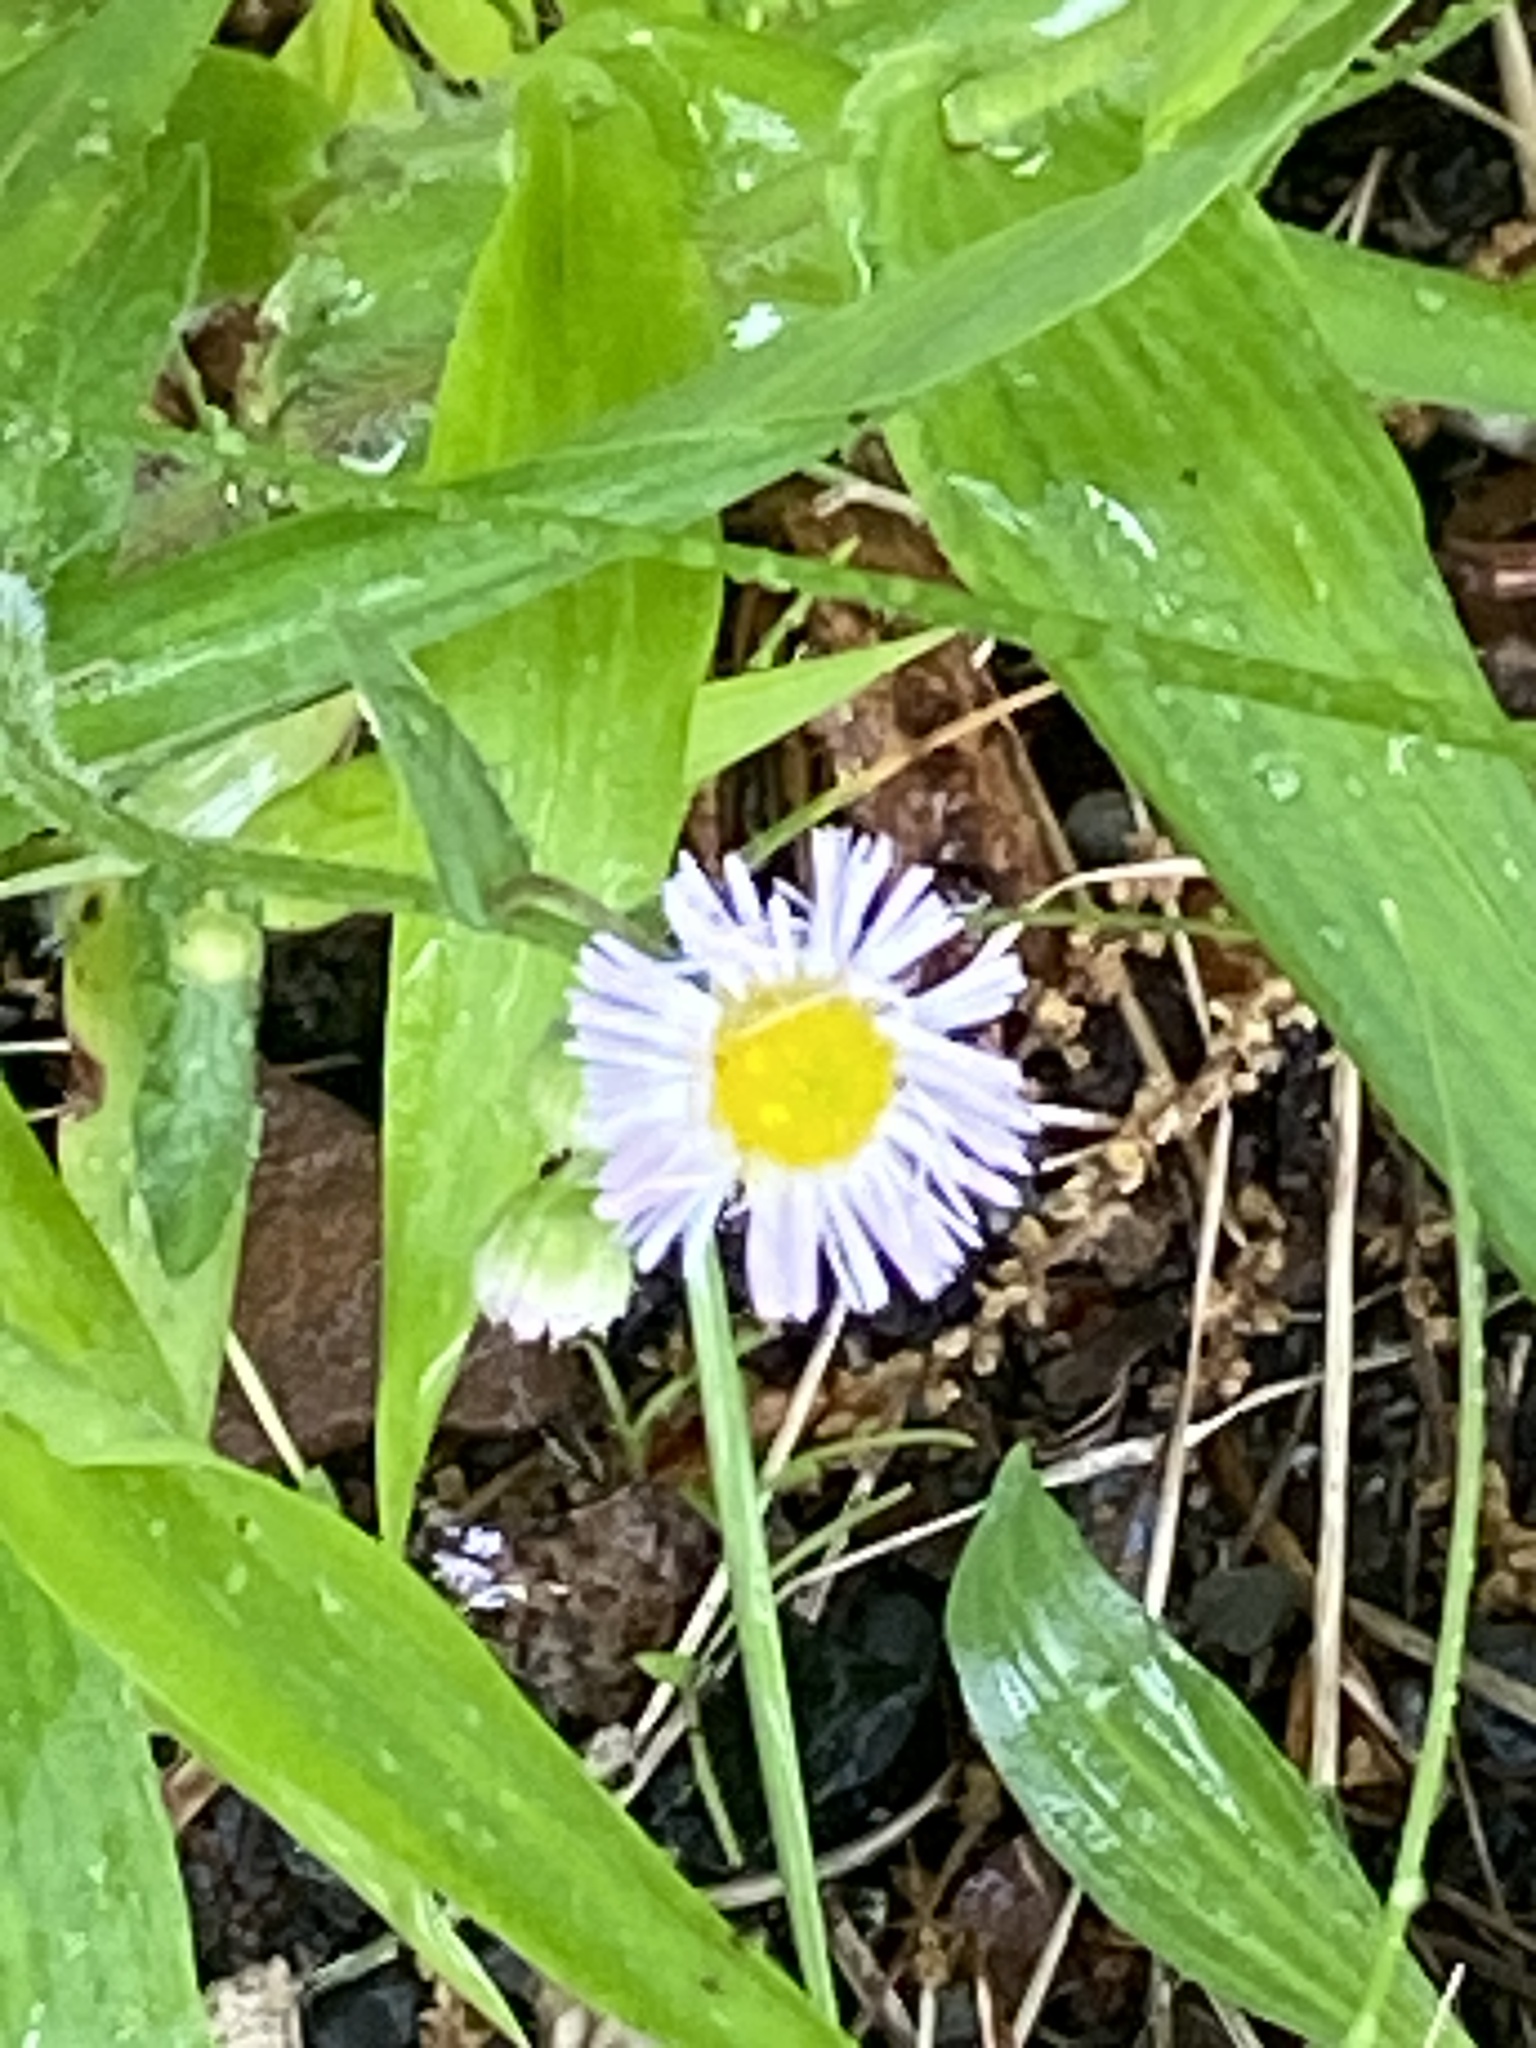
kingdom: Plantae
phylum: Tracheophyta
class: Magnoliopsida
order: Asterales
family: Asteraceae
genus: Erigeron
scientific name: Erigeron philadelphicus
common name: Robin's-plantain
